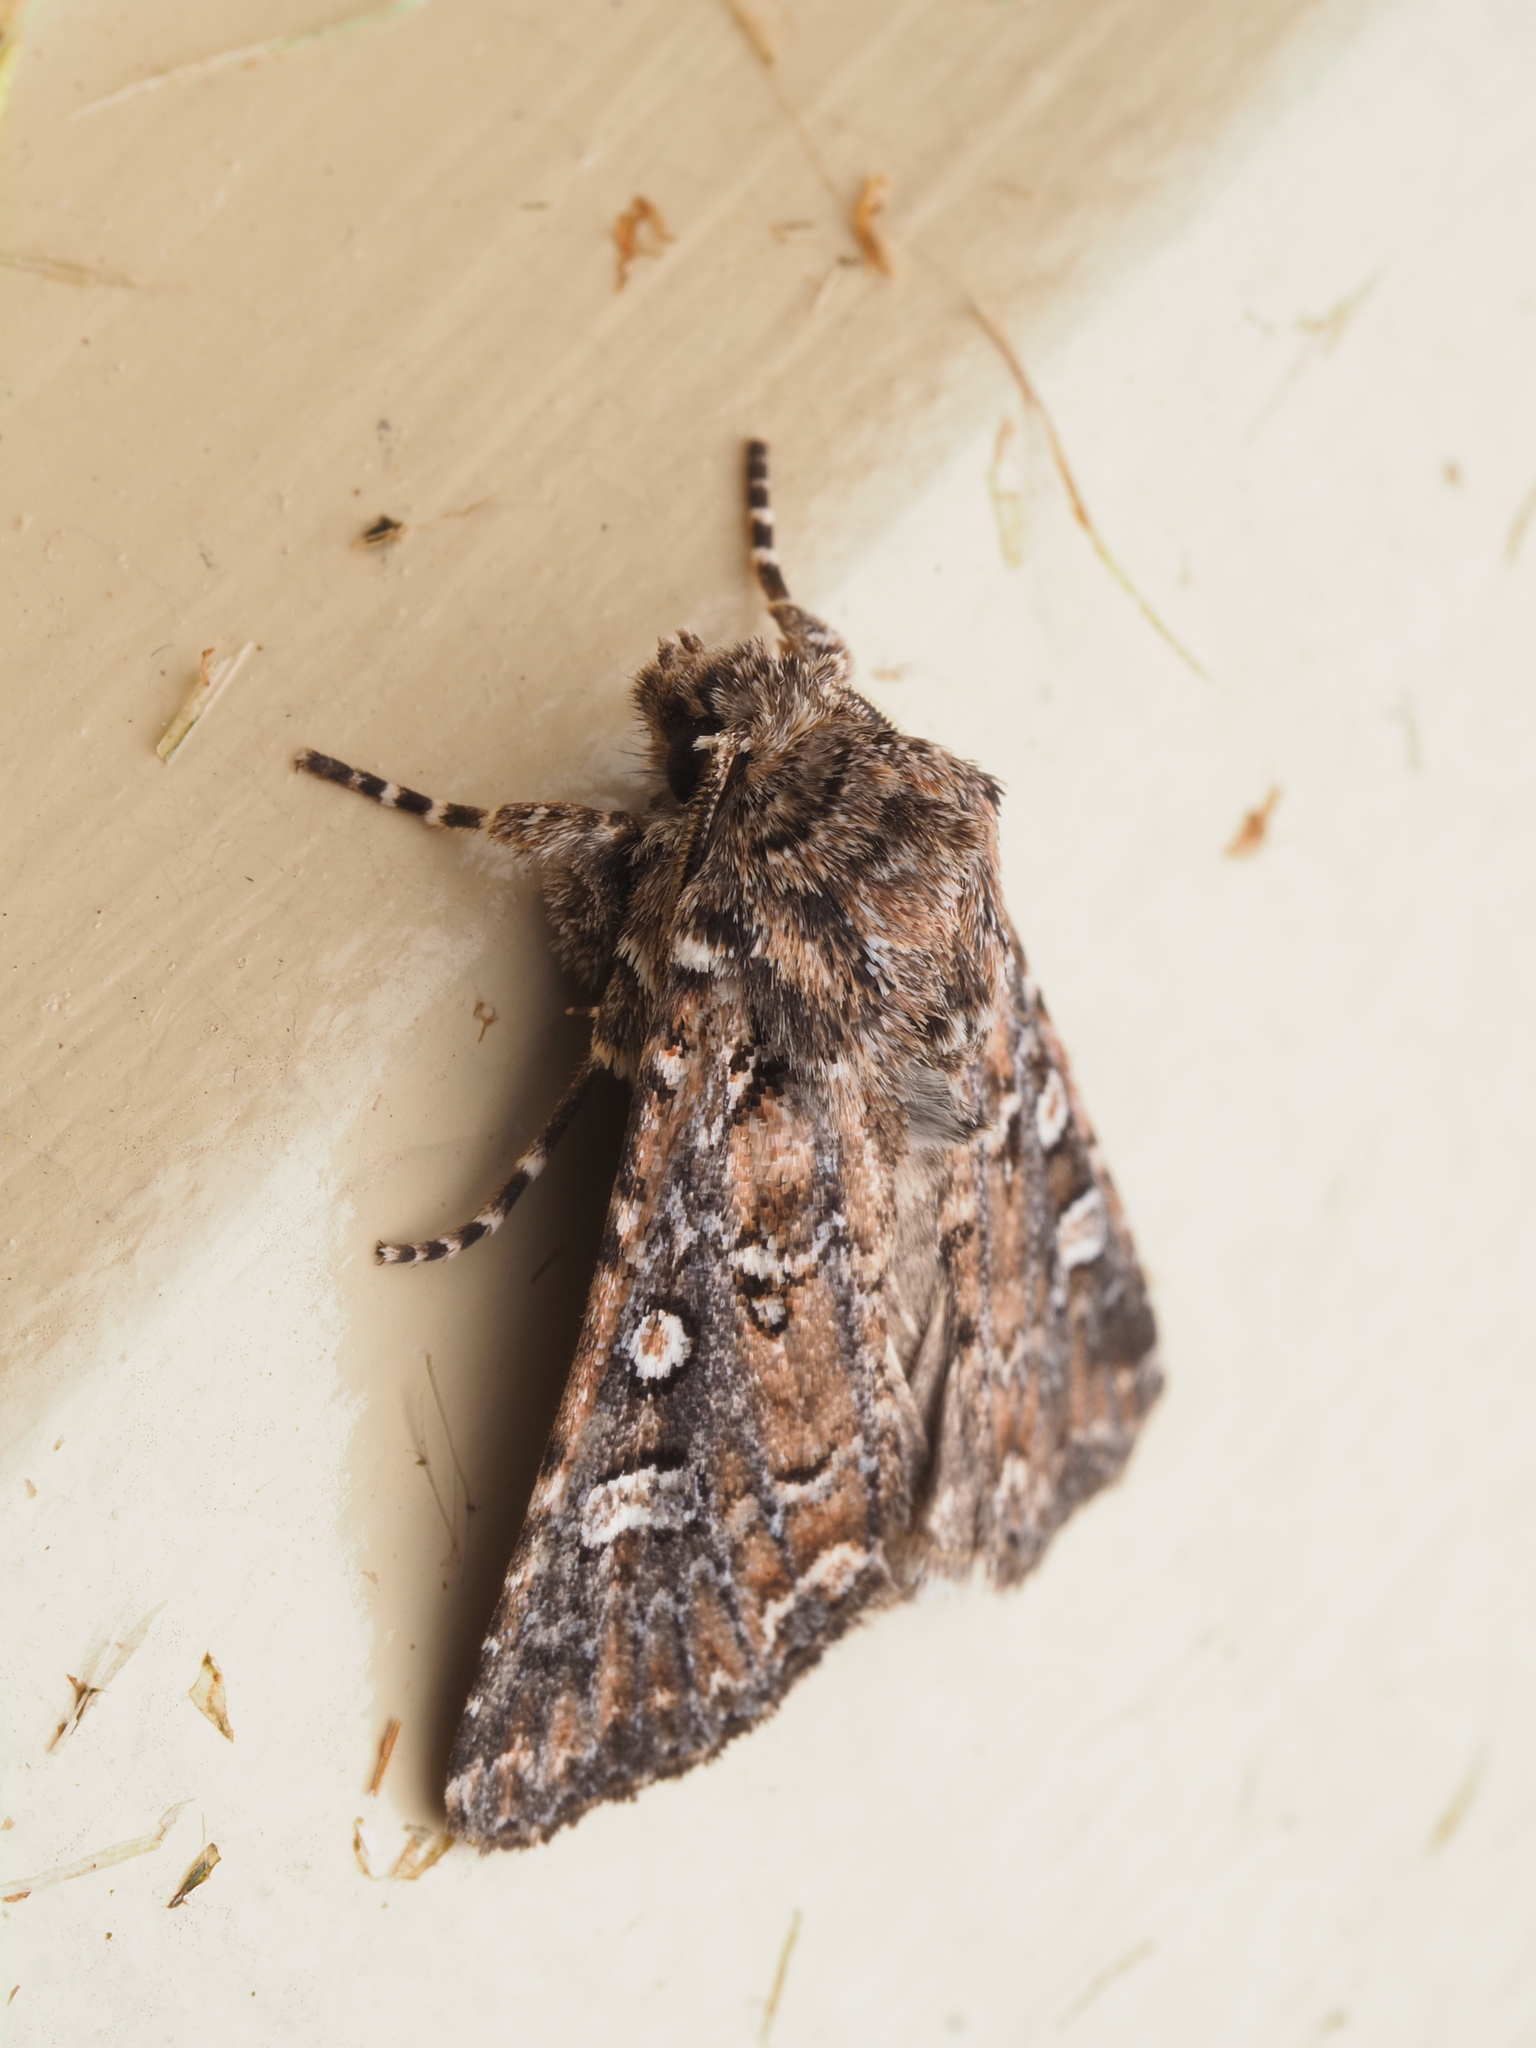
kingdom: Animalia
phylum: Arthropoda
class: Insecta
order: Lepidoptera
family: Noctuidae
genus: Ichneutica
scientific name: Ichneutica lithias
